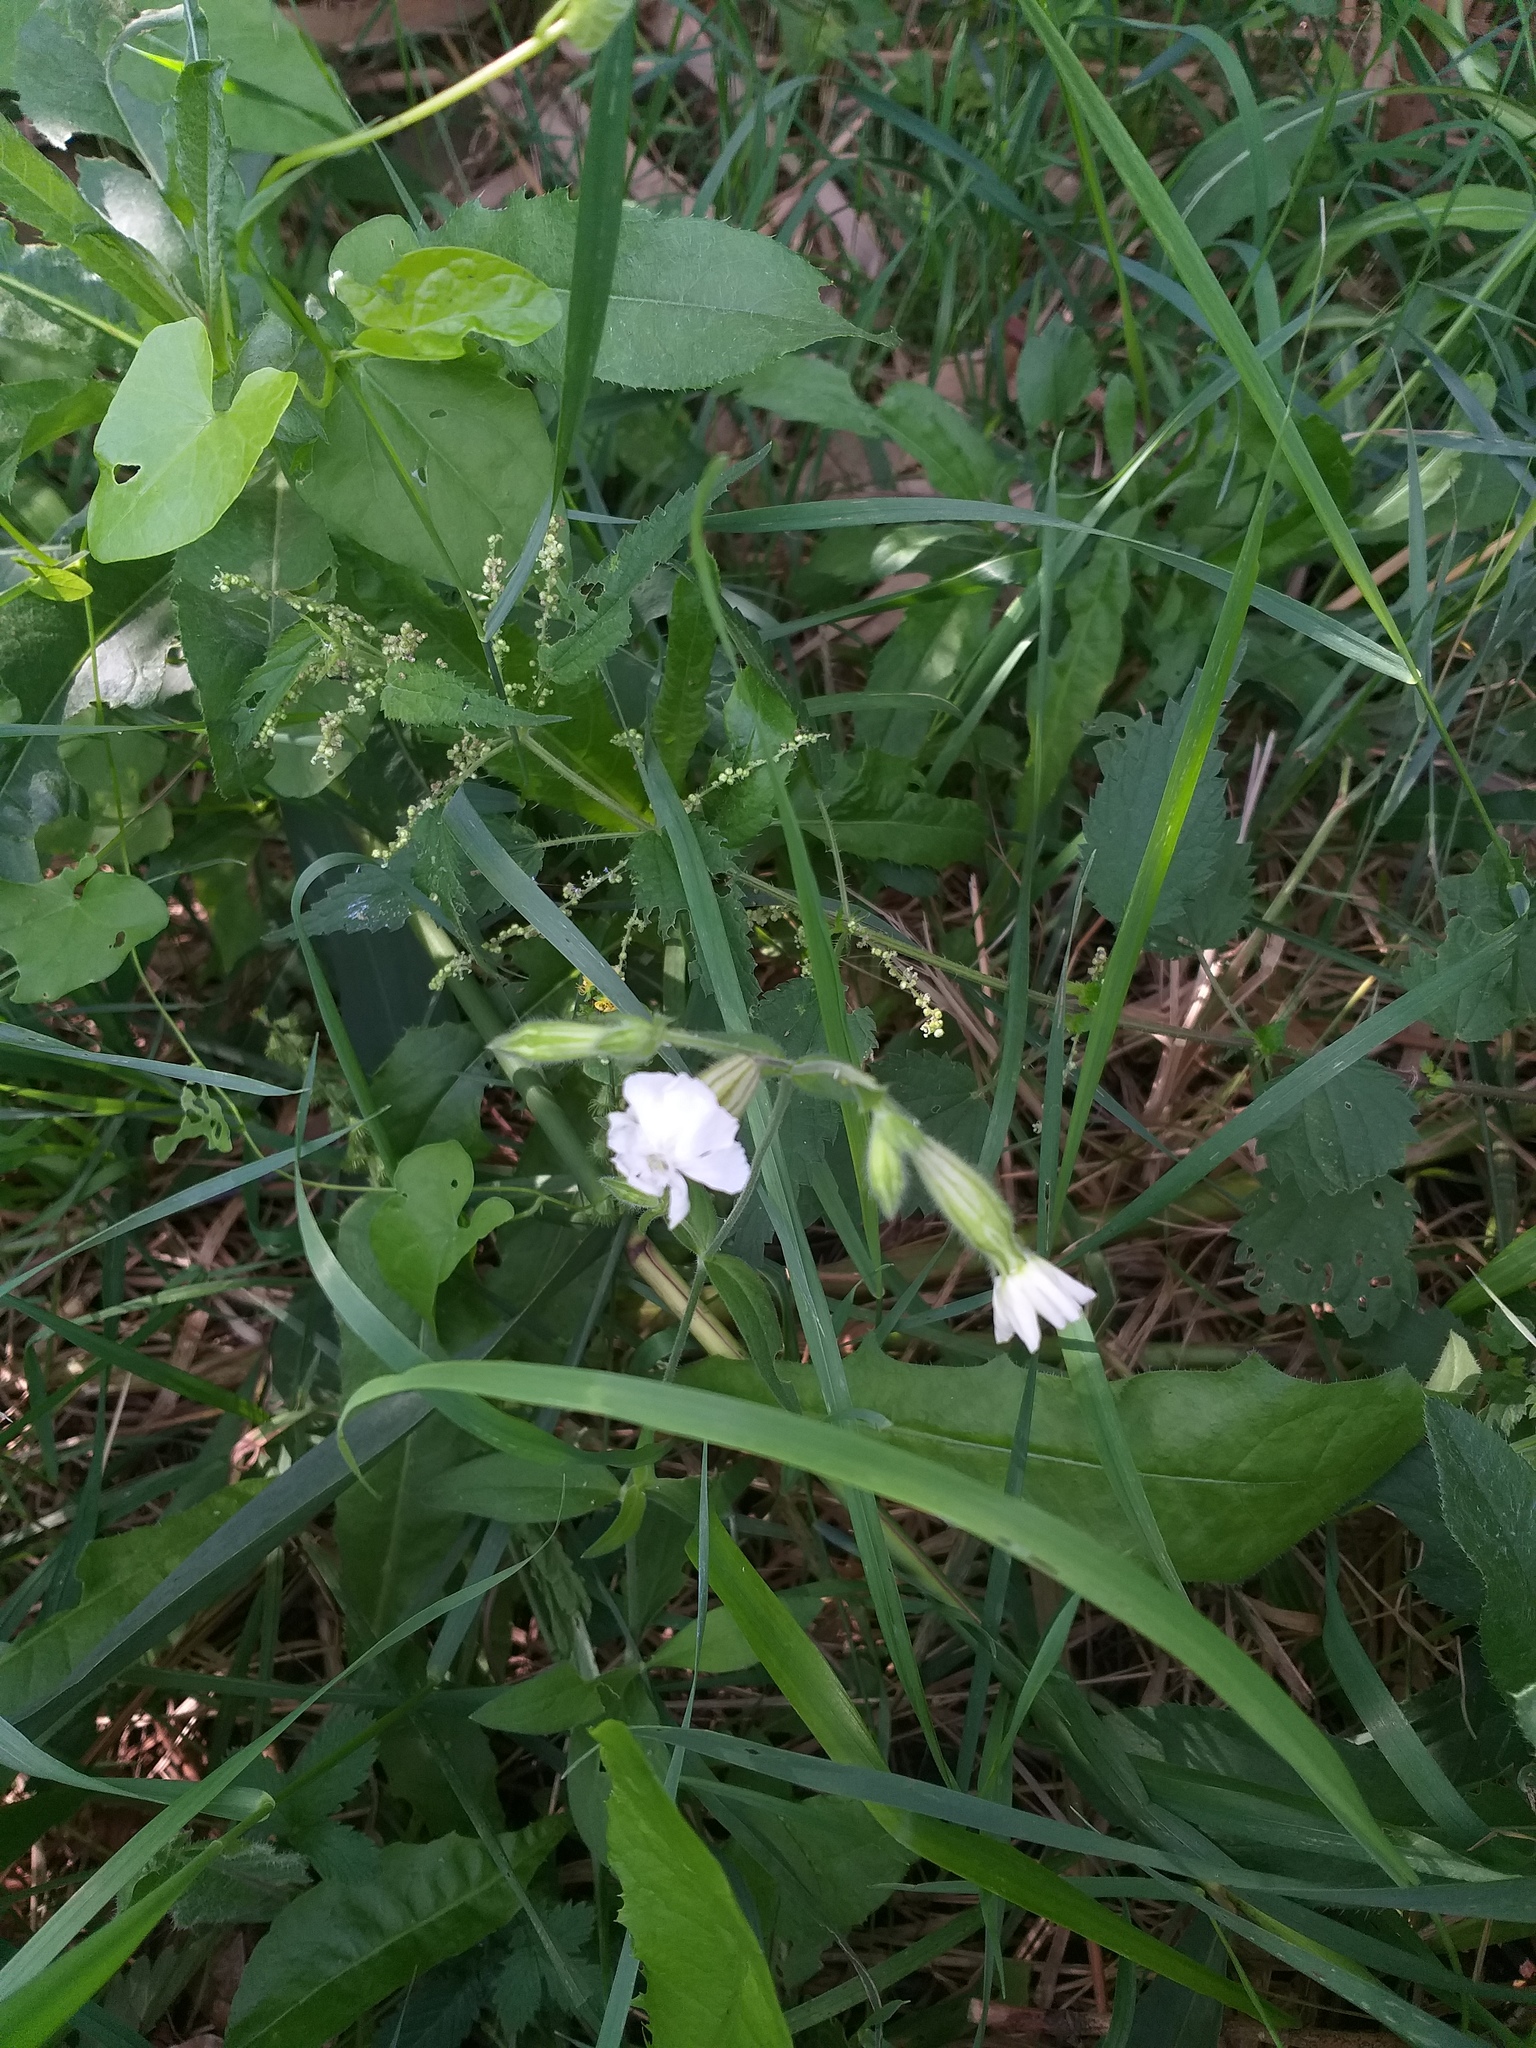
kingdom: Plantae
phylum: Tracheophyta
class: Magnoliopsida
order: Caryophyllales
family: Caryophyllaceae
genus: Silene
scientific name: Silene latifolia
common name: White campion
